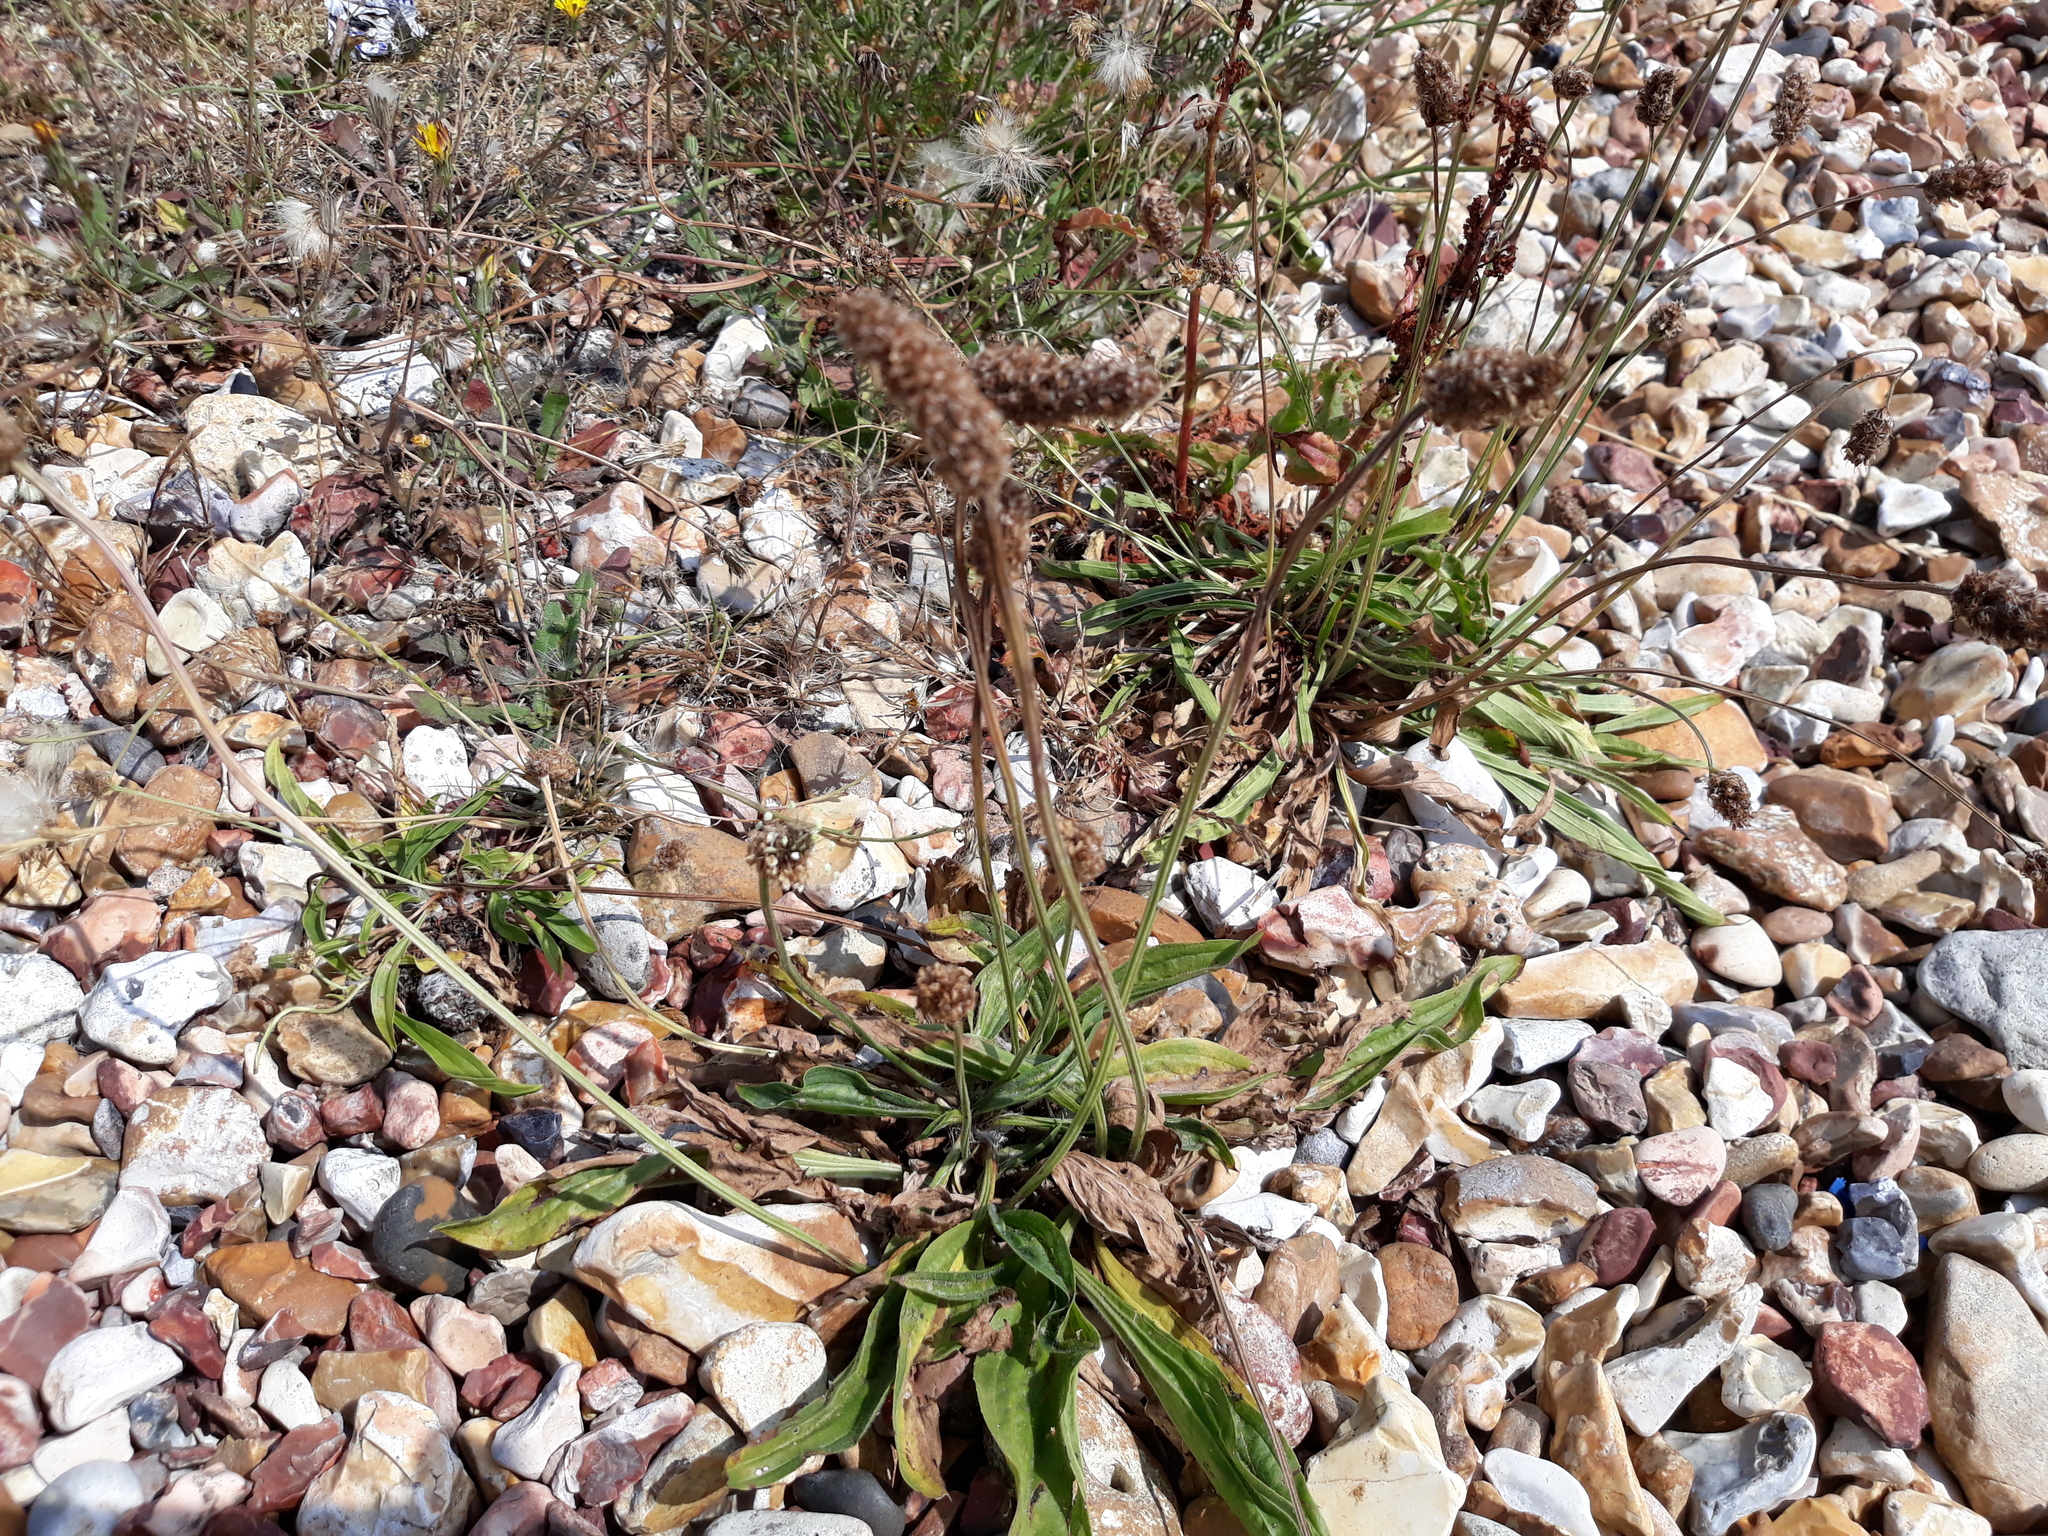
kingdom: Plantae
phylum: Tracheophyta
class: Magnoliopsida
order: Lamiales
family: Plantaginaceae
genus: Plantago
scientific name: Plantago lanceolata
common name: Ribwort plantain
